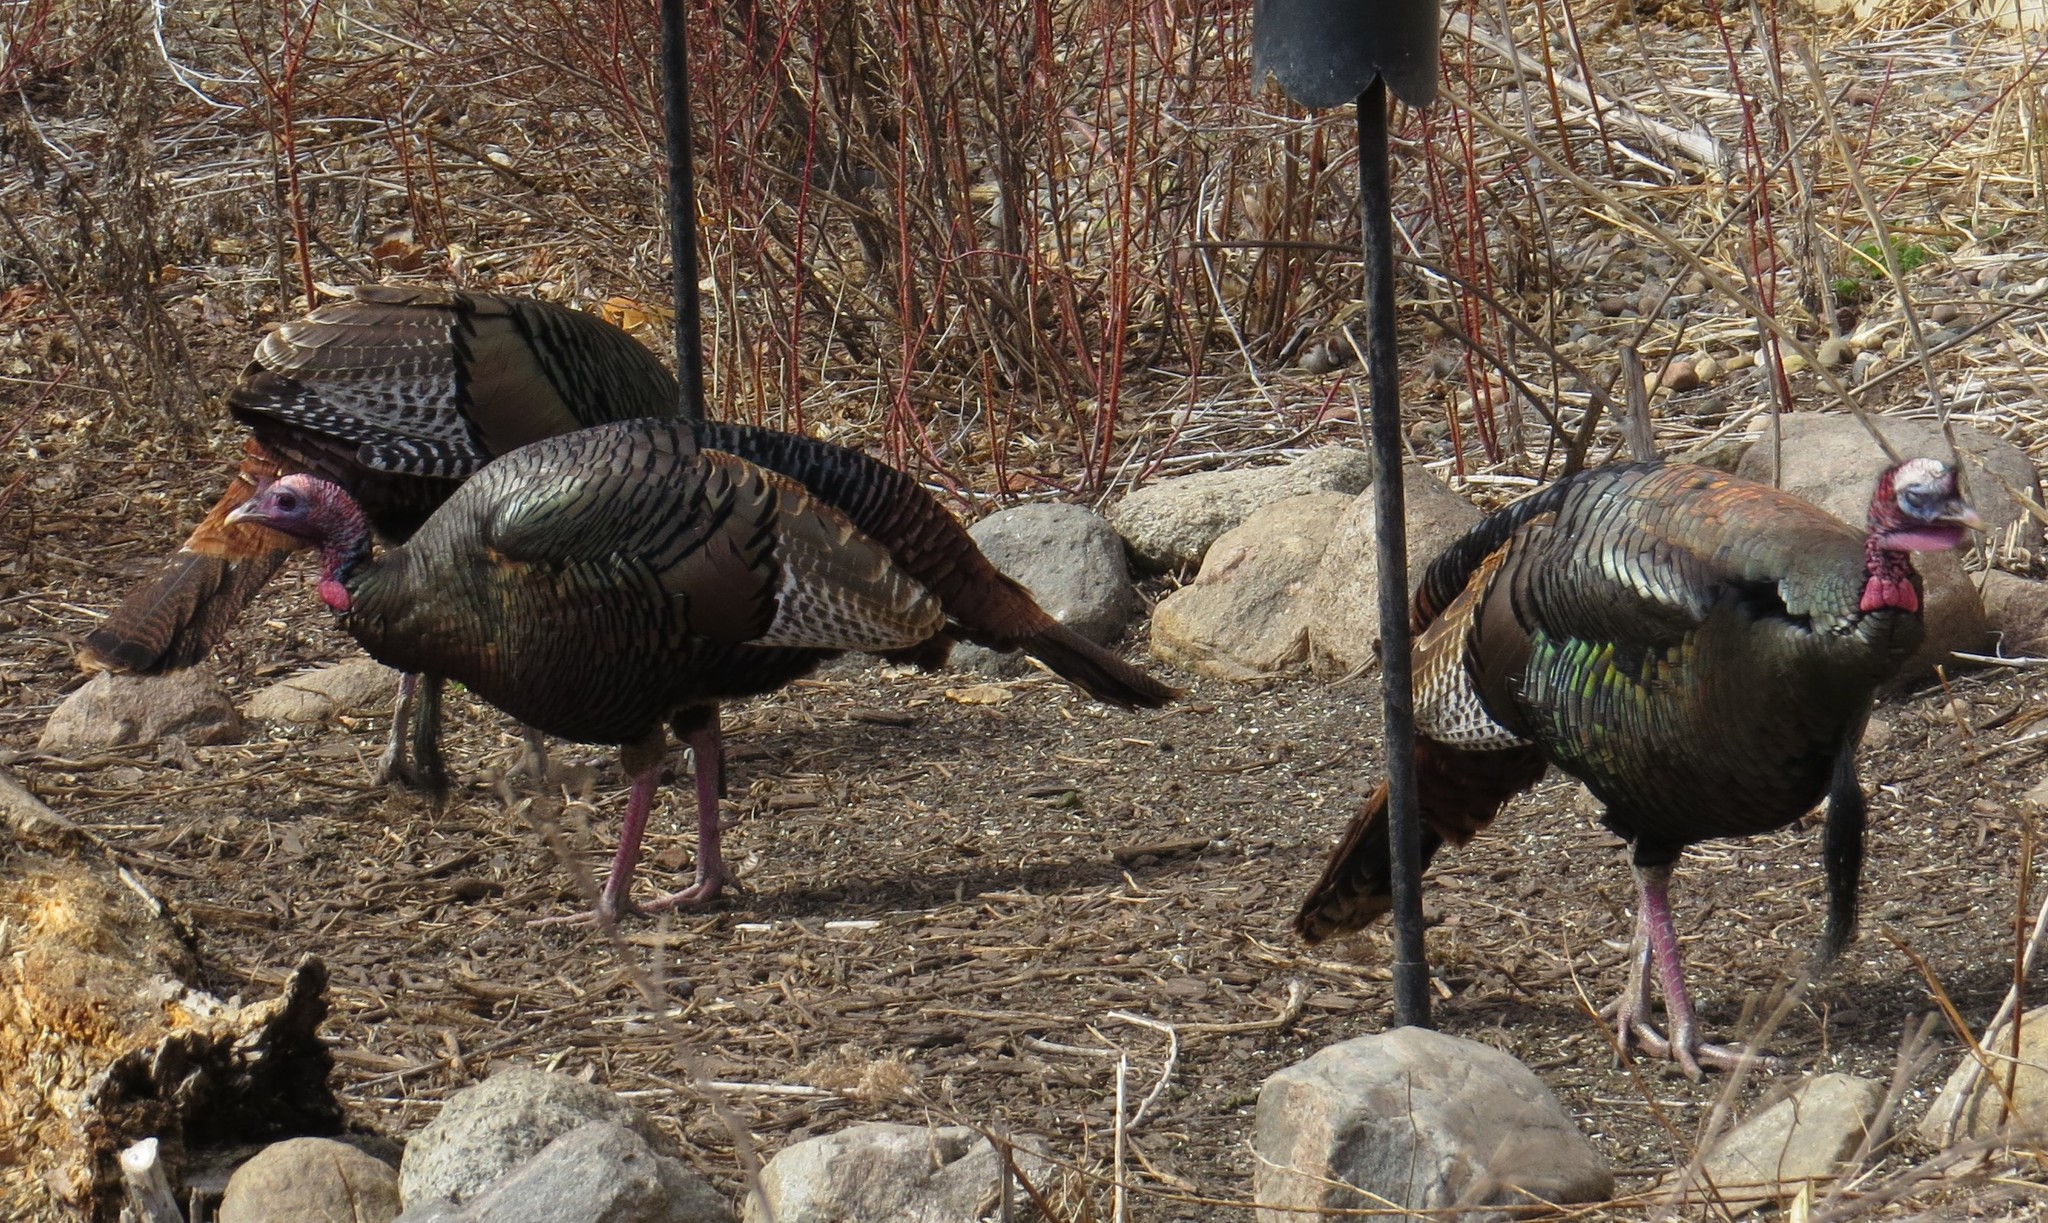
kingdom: Animalia
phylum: Chordata
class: Aves
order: Galliformes
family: Phasianidae
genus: Meleagris
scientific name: Meleagris gallopavo
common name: Wild turkey
